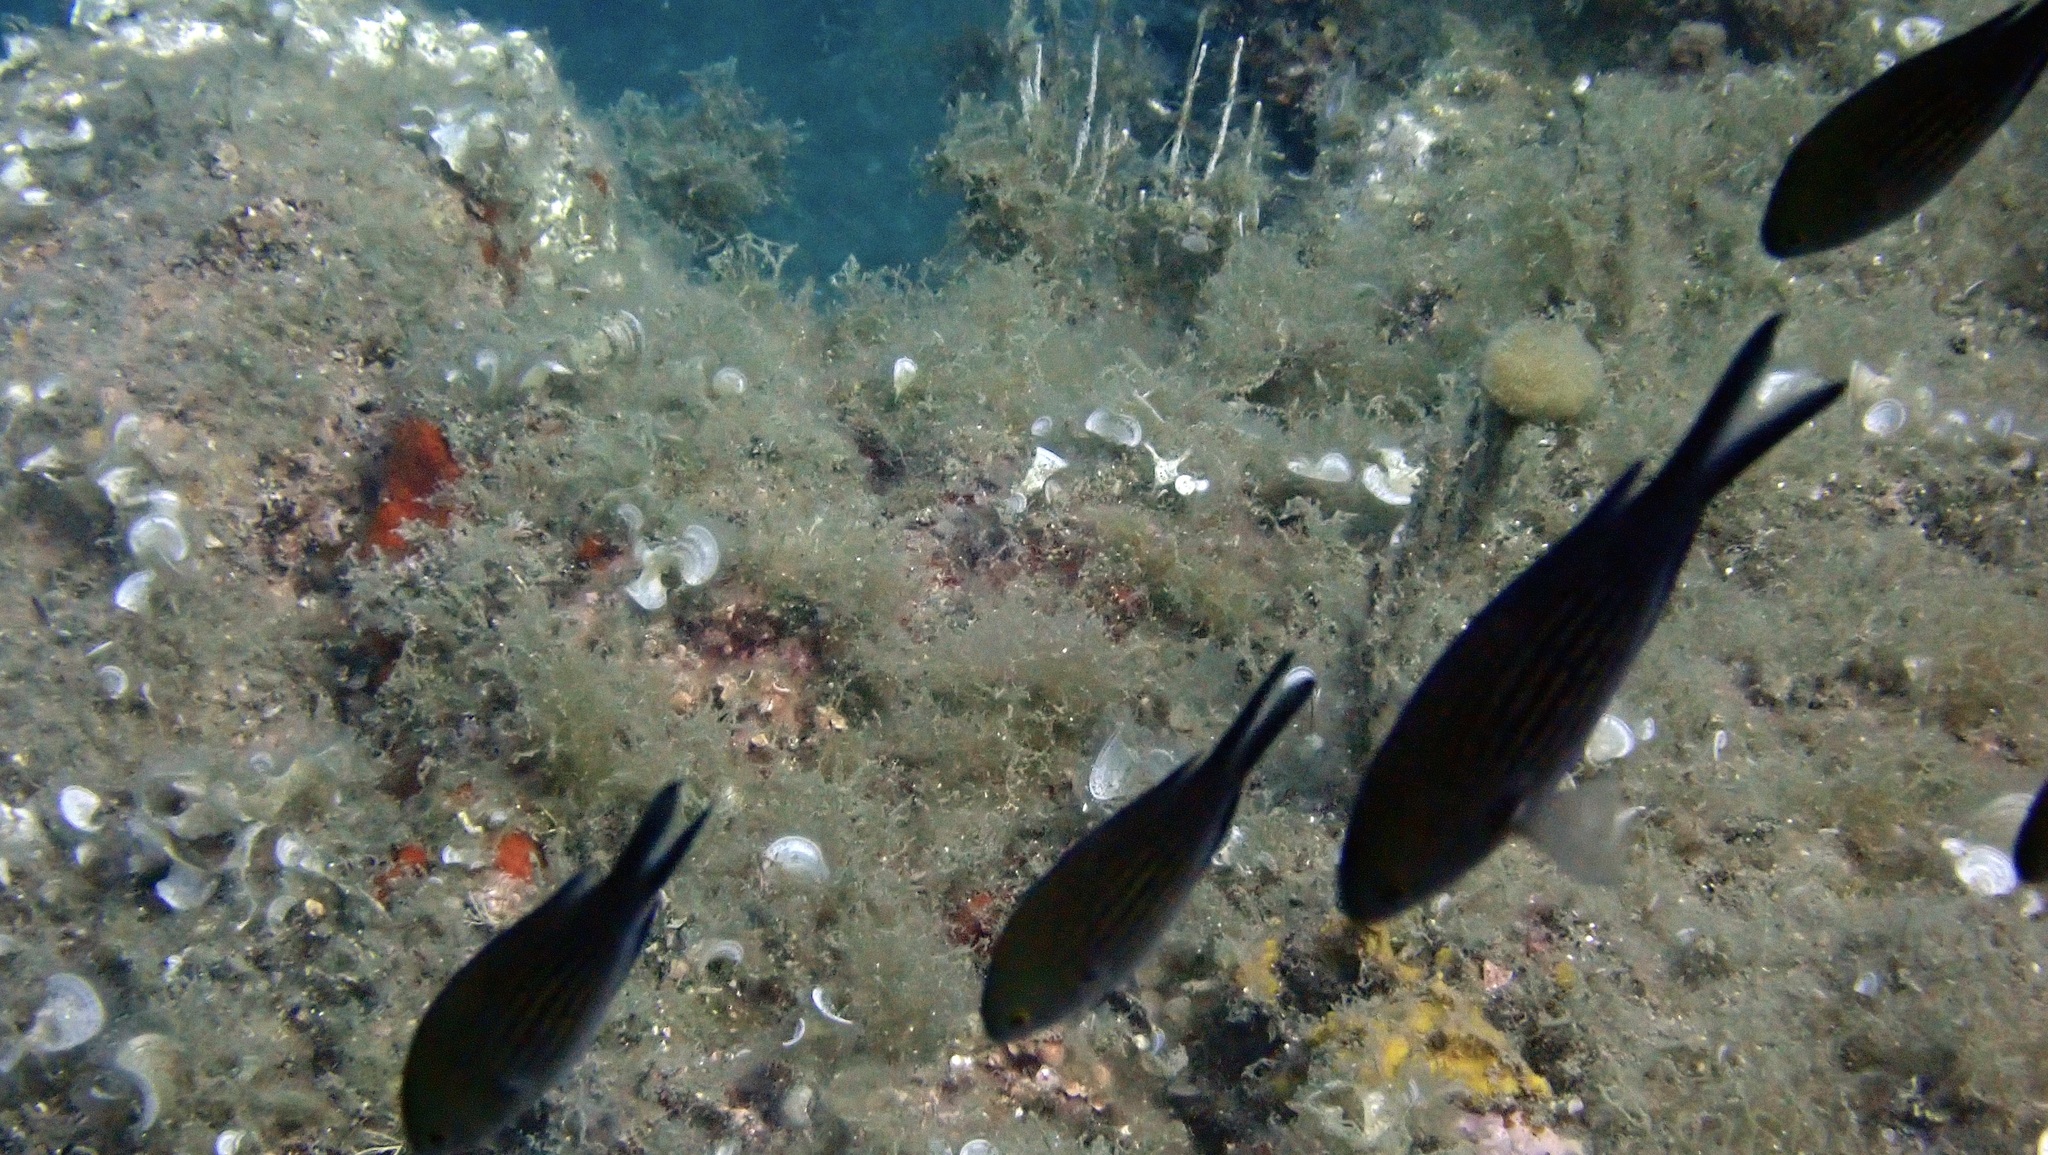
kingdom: Animalia
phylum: Chordata
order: Perciformes
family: Pomacentridae
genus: Chromis
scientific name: Chromis chromis
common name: Damselfish
